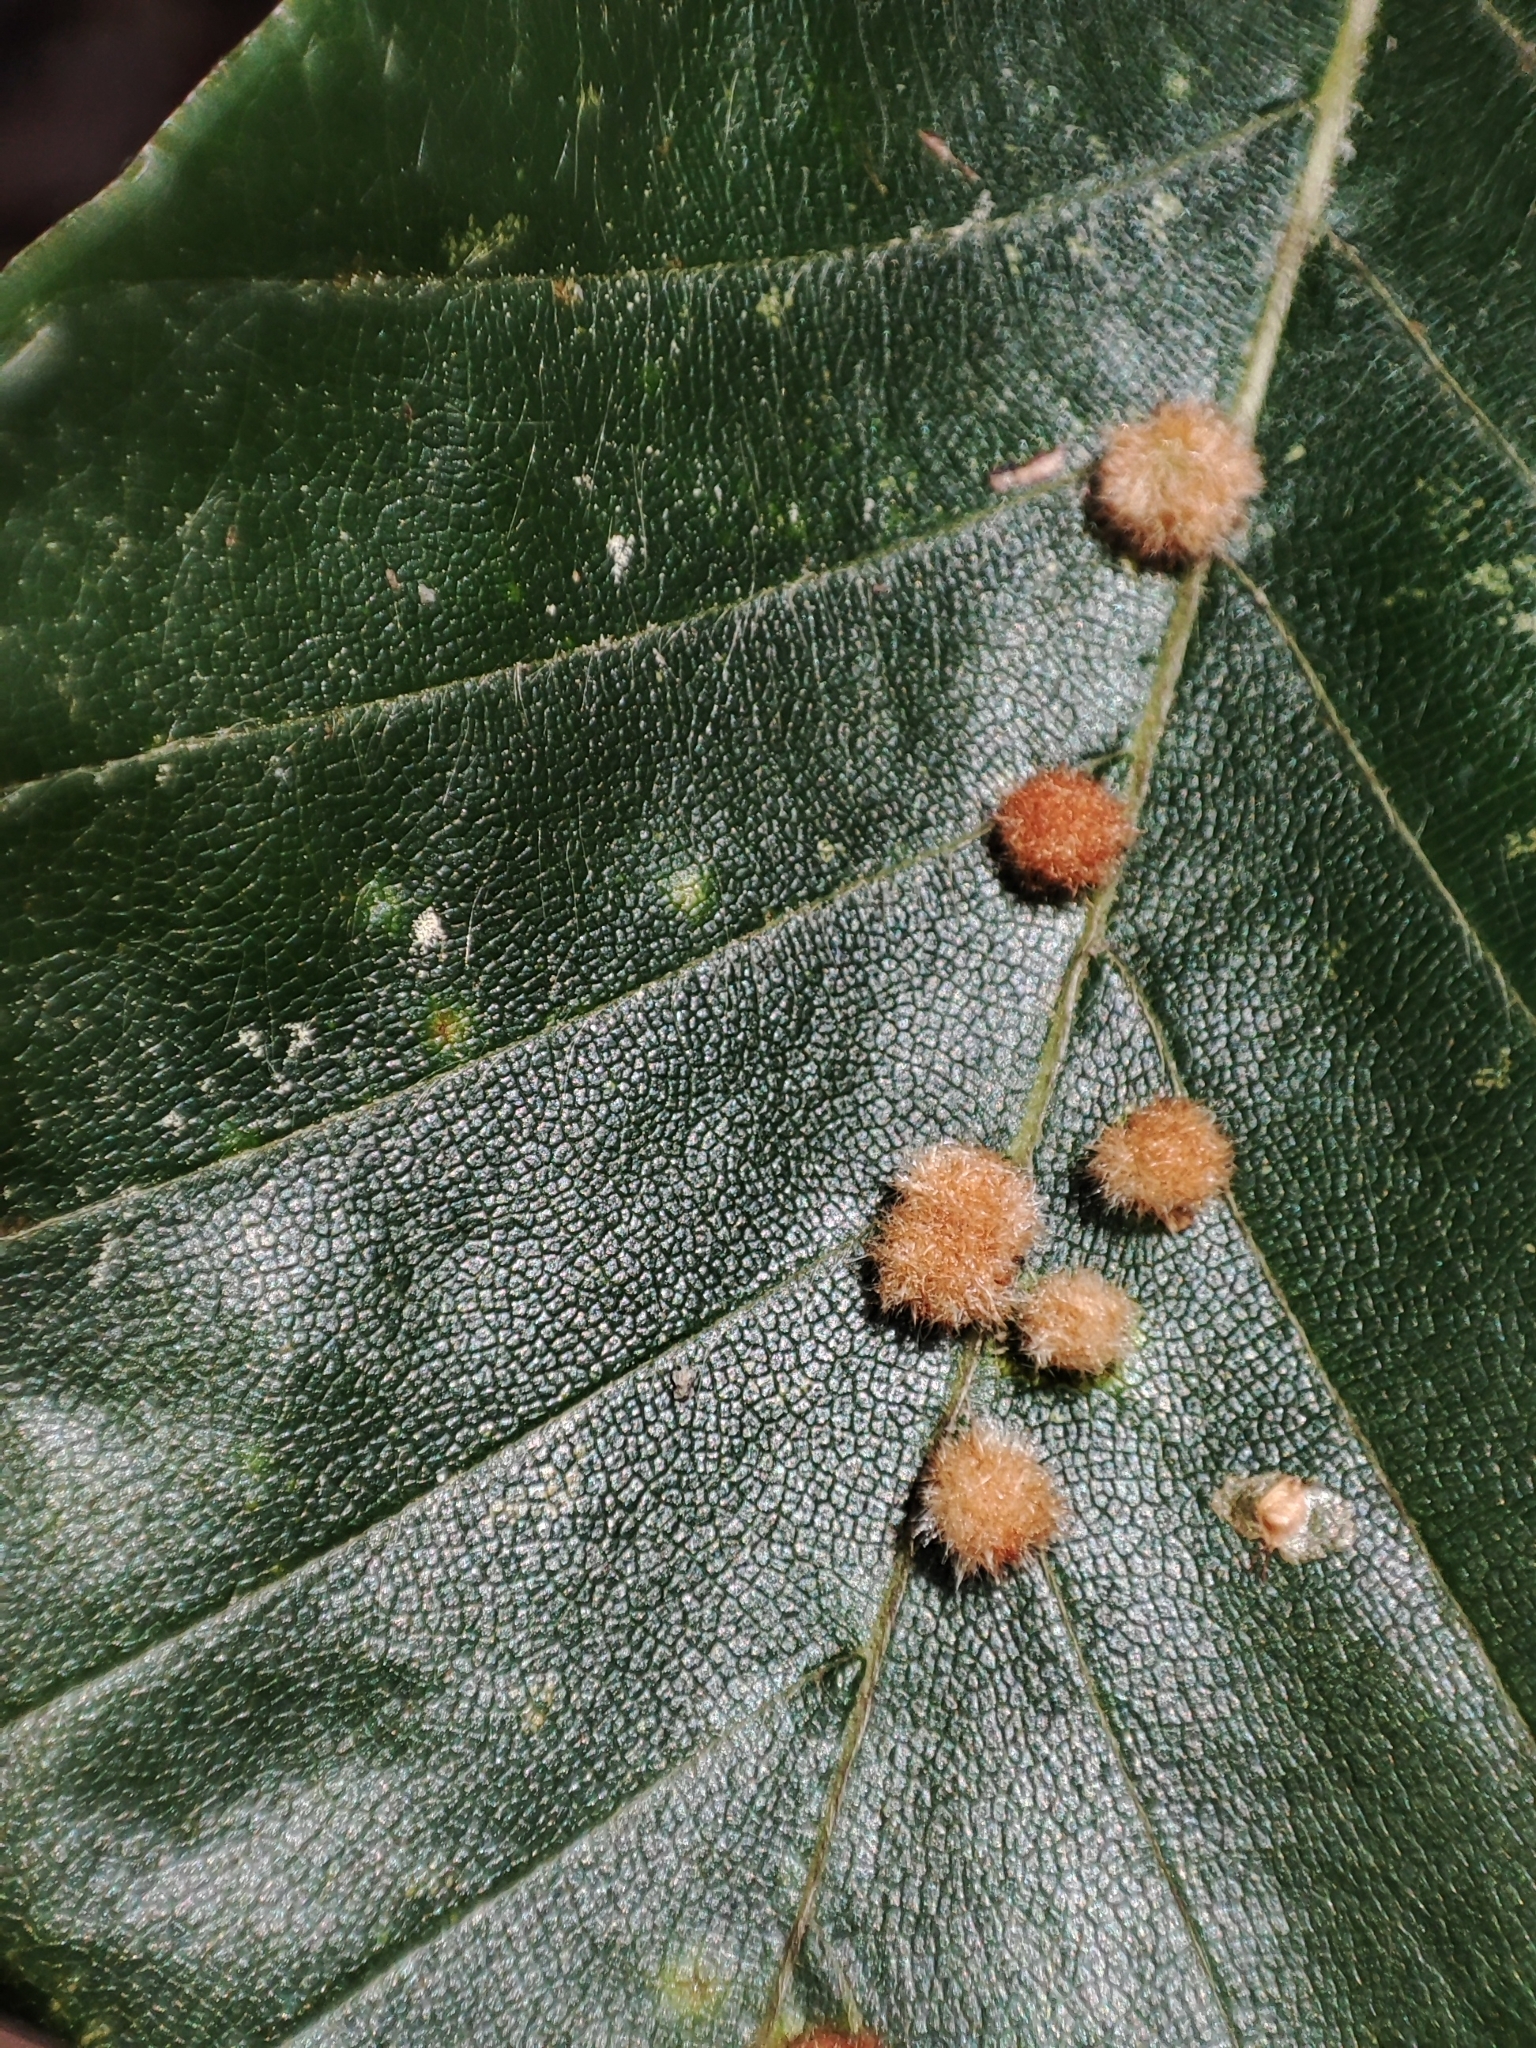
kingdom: Plantae
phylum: Tracheophyta
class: Magnoliopsida
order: Fagales
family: Fagaceae
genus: Fagus
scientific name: Fagus sylvatica
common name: Beech
